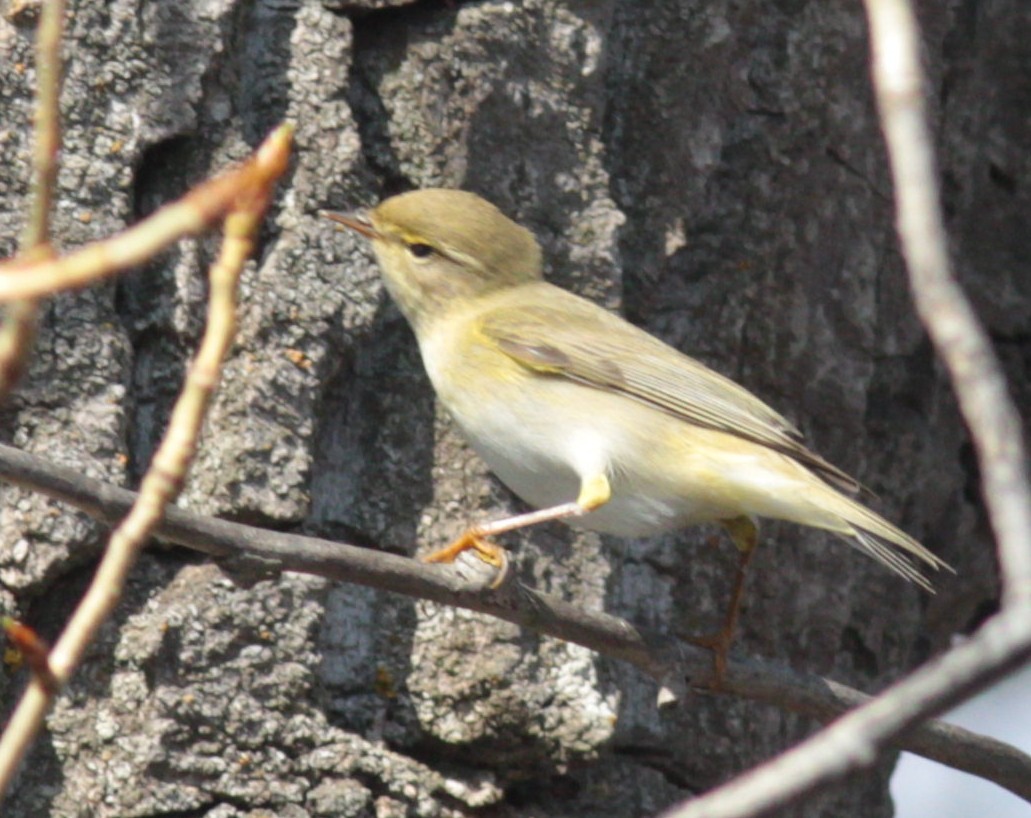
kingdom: Animalia
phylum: Chordata
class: Aves
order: Passeriformes
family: Phylloscopidae
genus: Phylloscopus
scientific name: Phylloscopus trochilus
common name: Willow warbler
